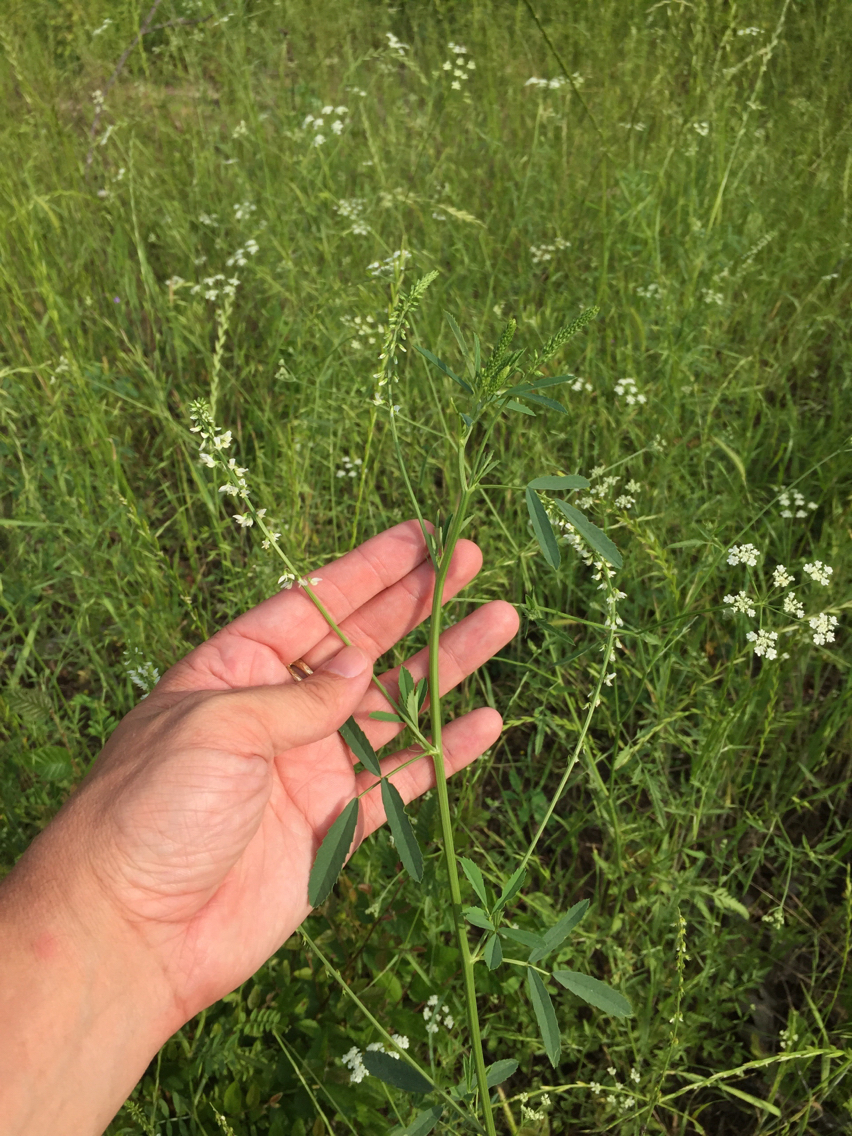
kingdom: Plantae
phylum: Tracheophyta
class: Magnoliopsida
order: Fabales
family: Fabaceae
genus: Melilotus
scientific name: Melilotus albus
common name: White melilot
